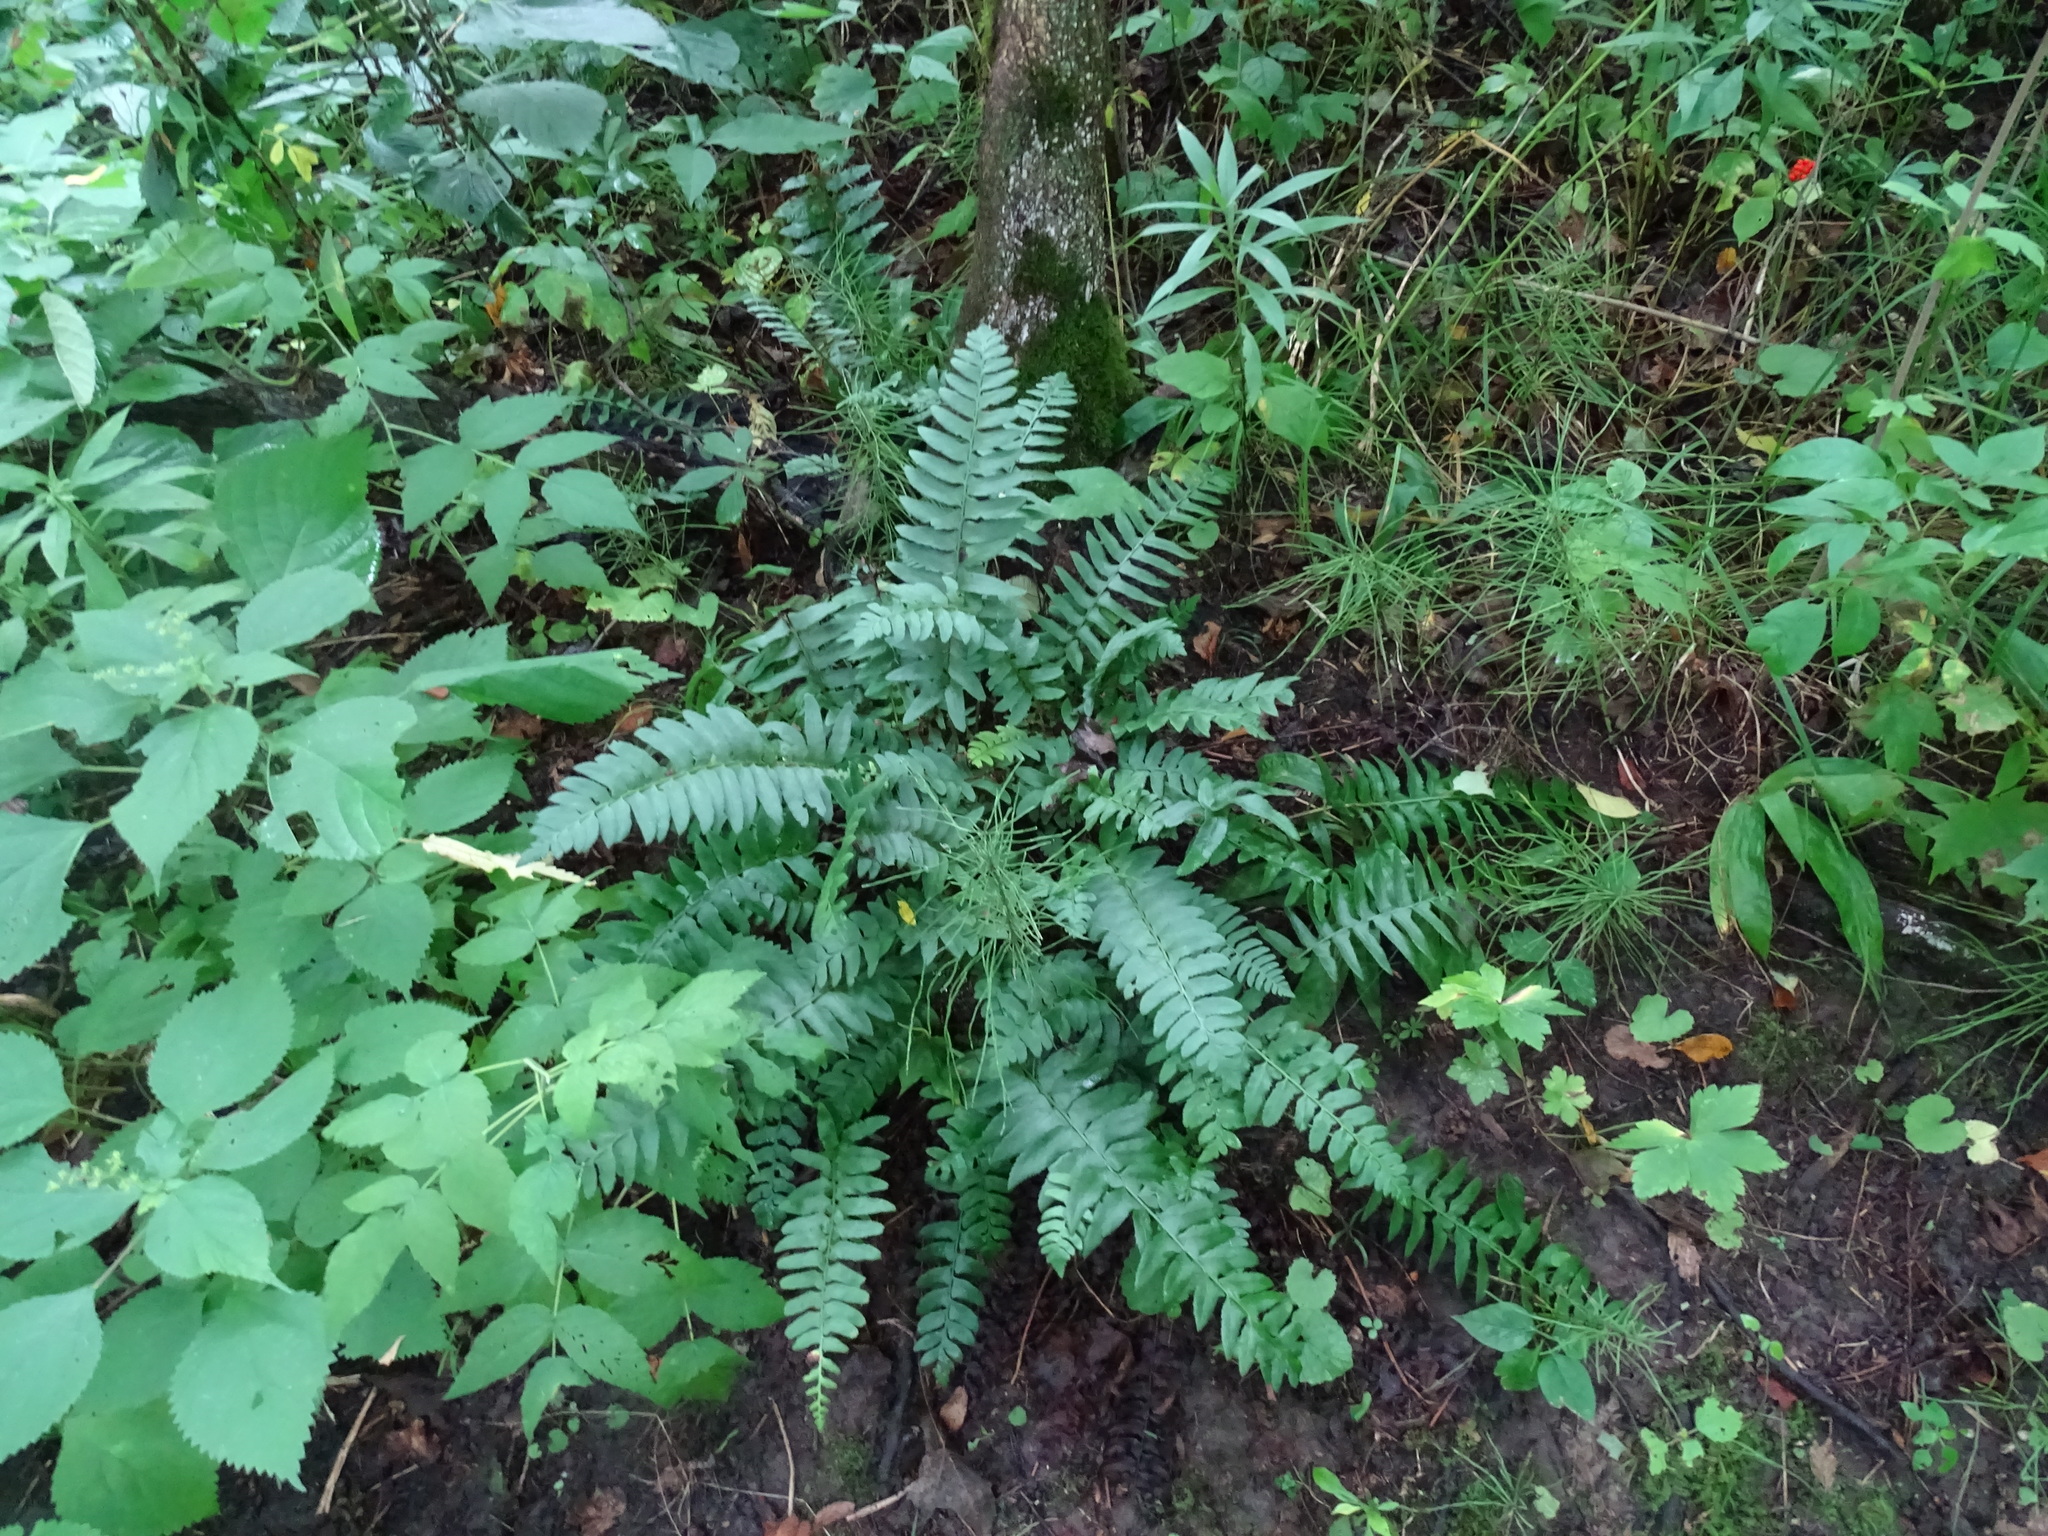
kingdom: Plantae
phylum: Tracheophyta
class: Polypodiopsida
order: Polypodiales
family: Dryopteridaceae
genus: Polystichum
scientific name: Polystichum acrostichoides
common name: Christmas fern
